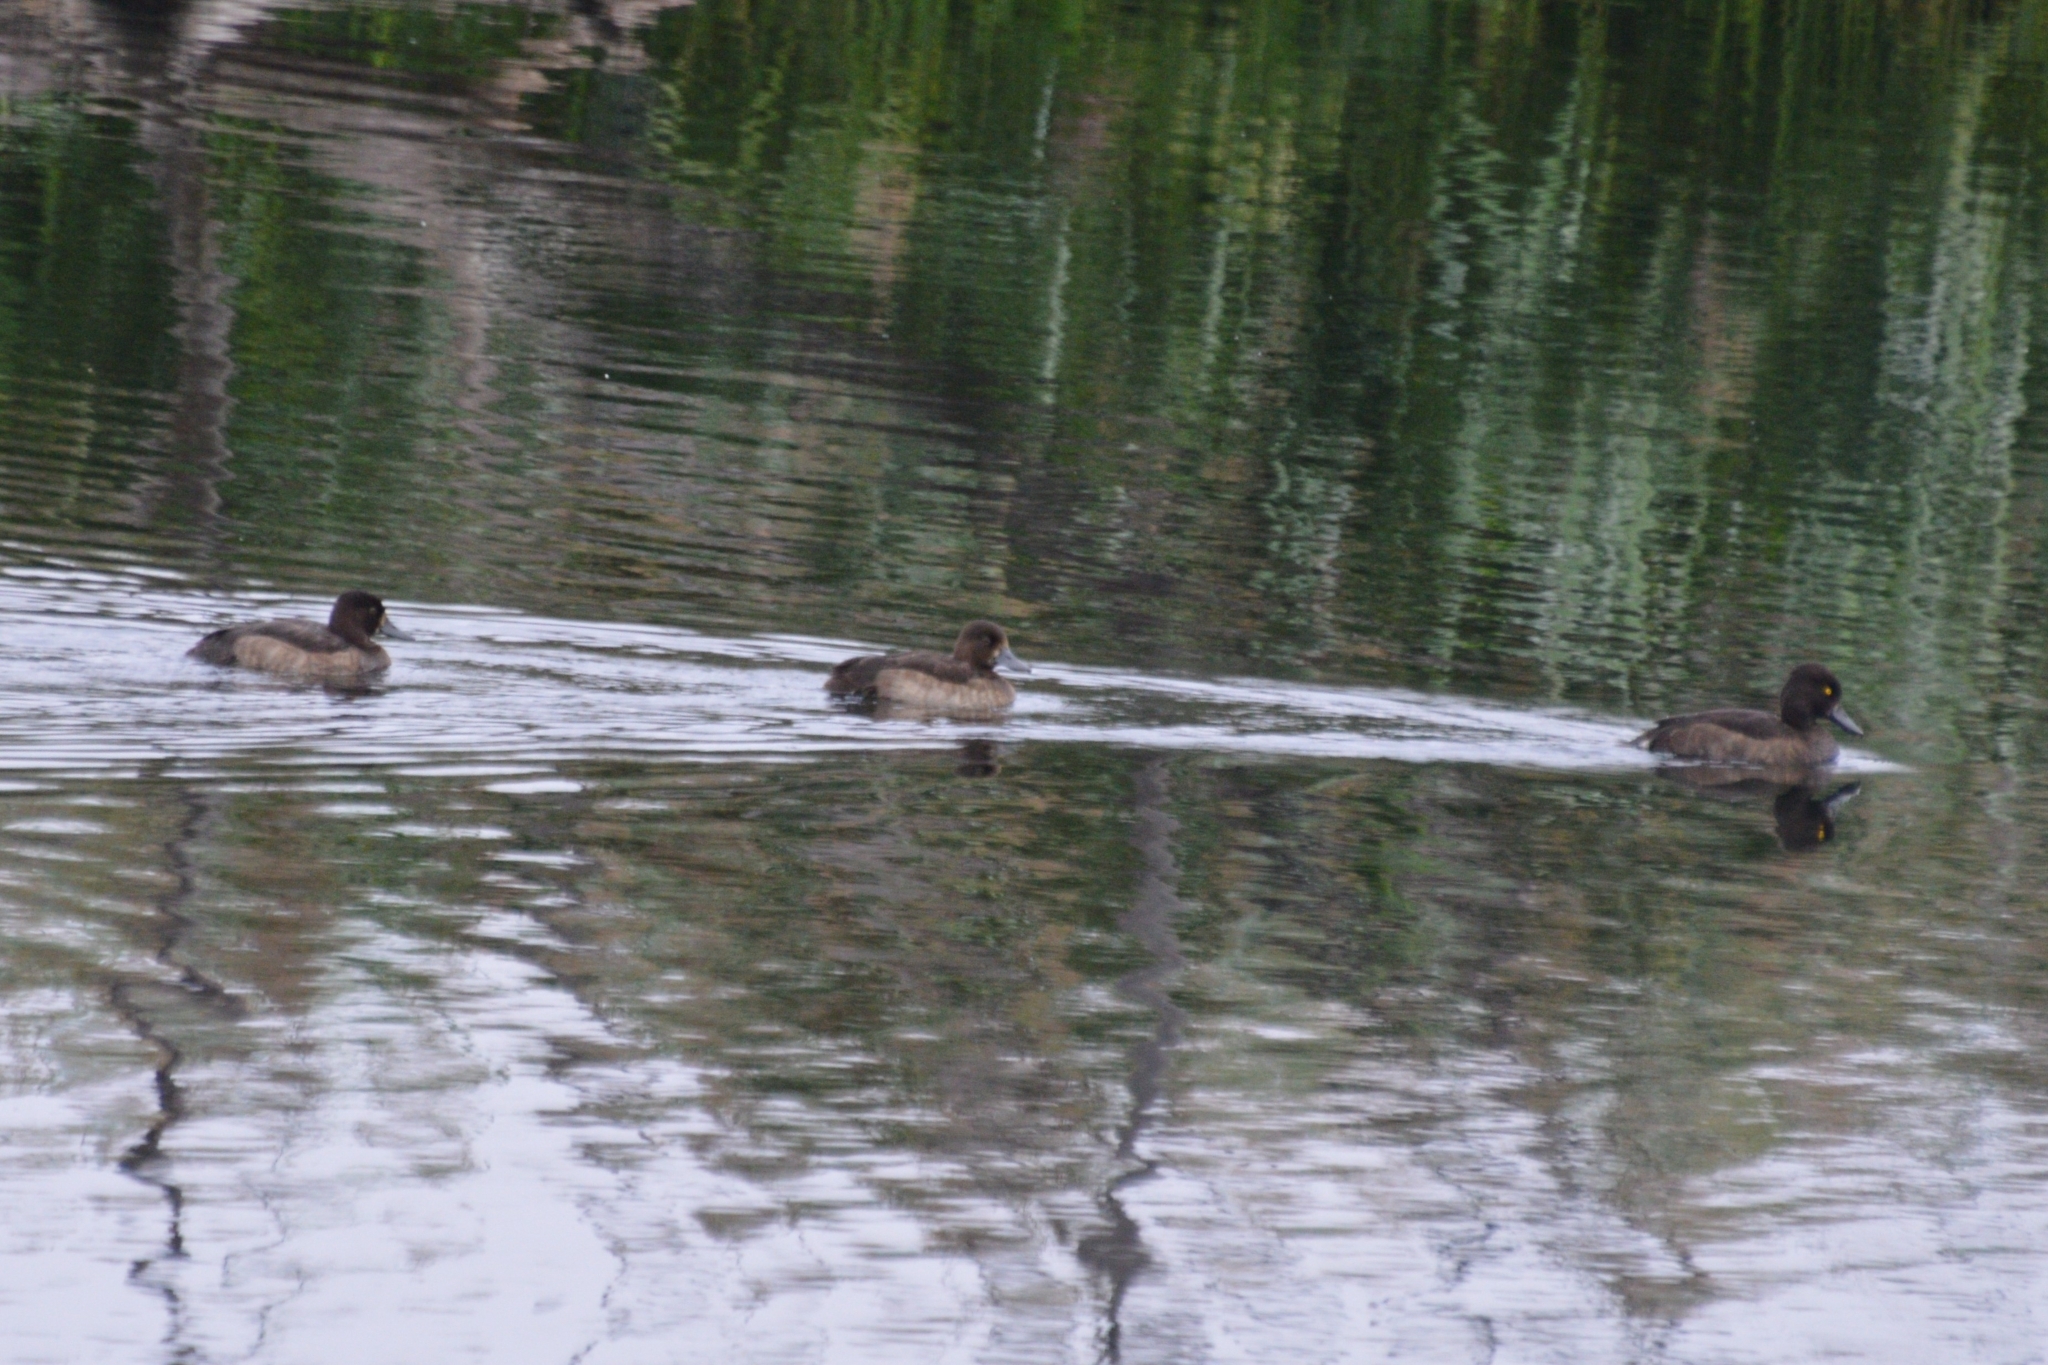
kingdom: Animalia
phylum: Chordata
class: Aves
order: Anseriformes
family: Anatidae
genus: Aythya
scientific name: Aythya fuligula
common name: Tufted duck
